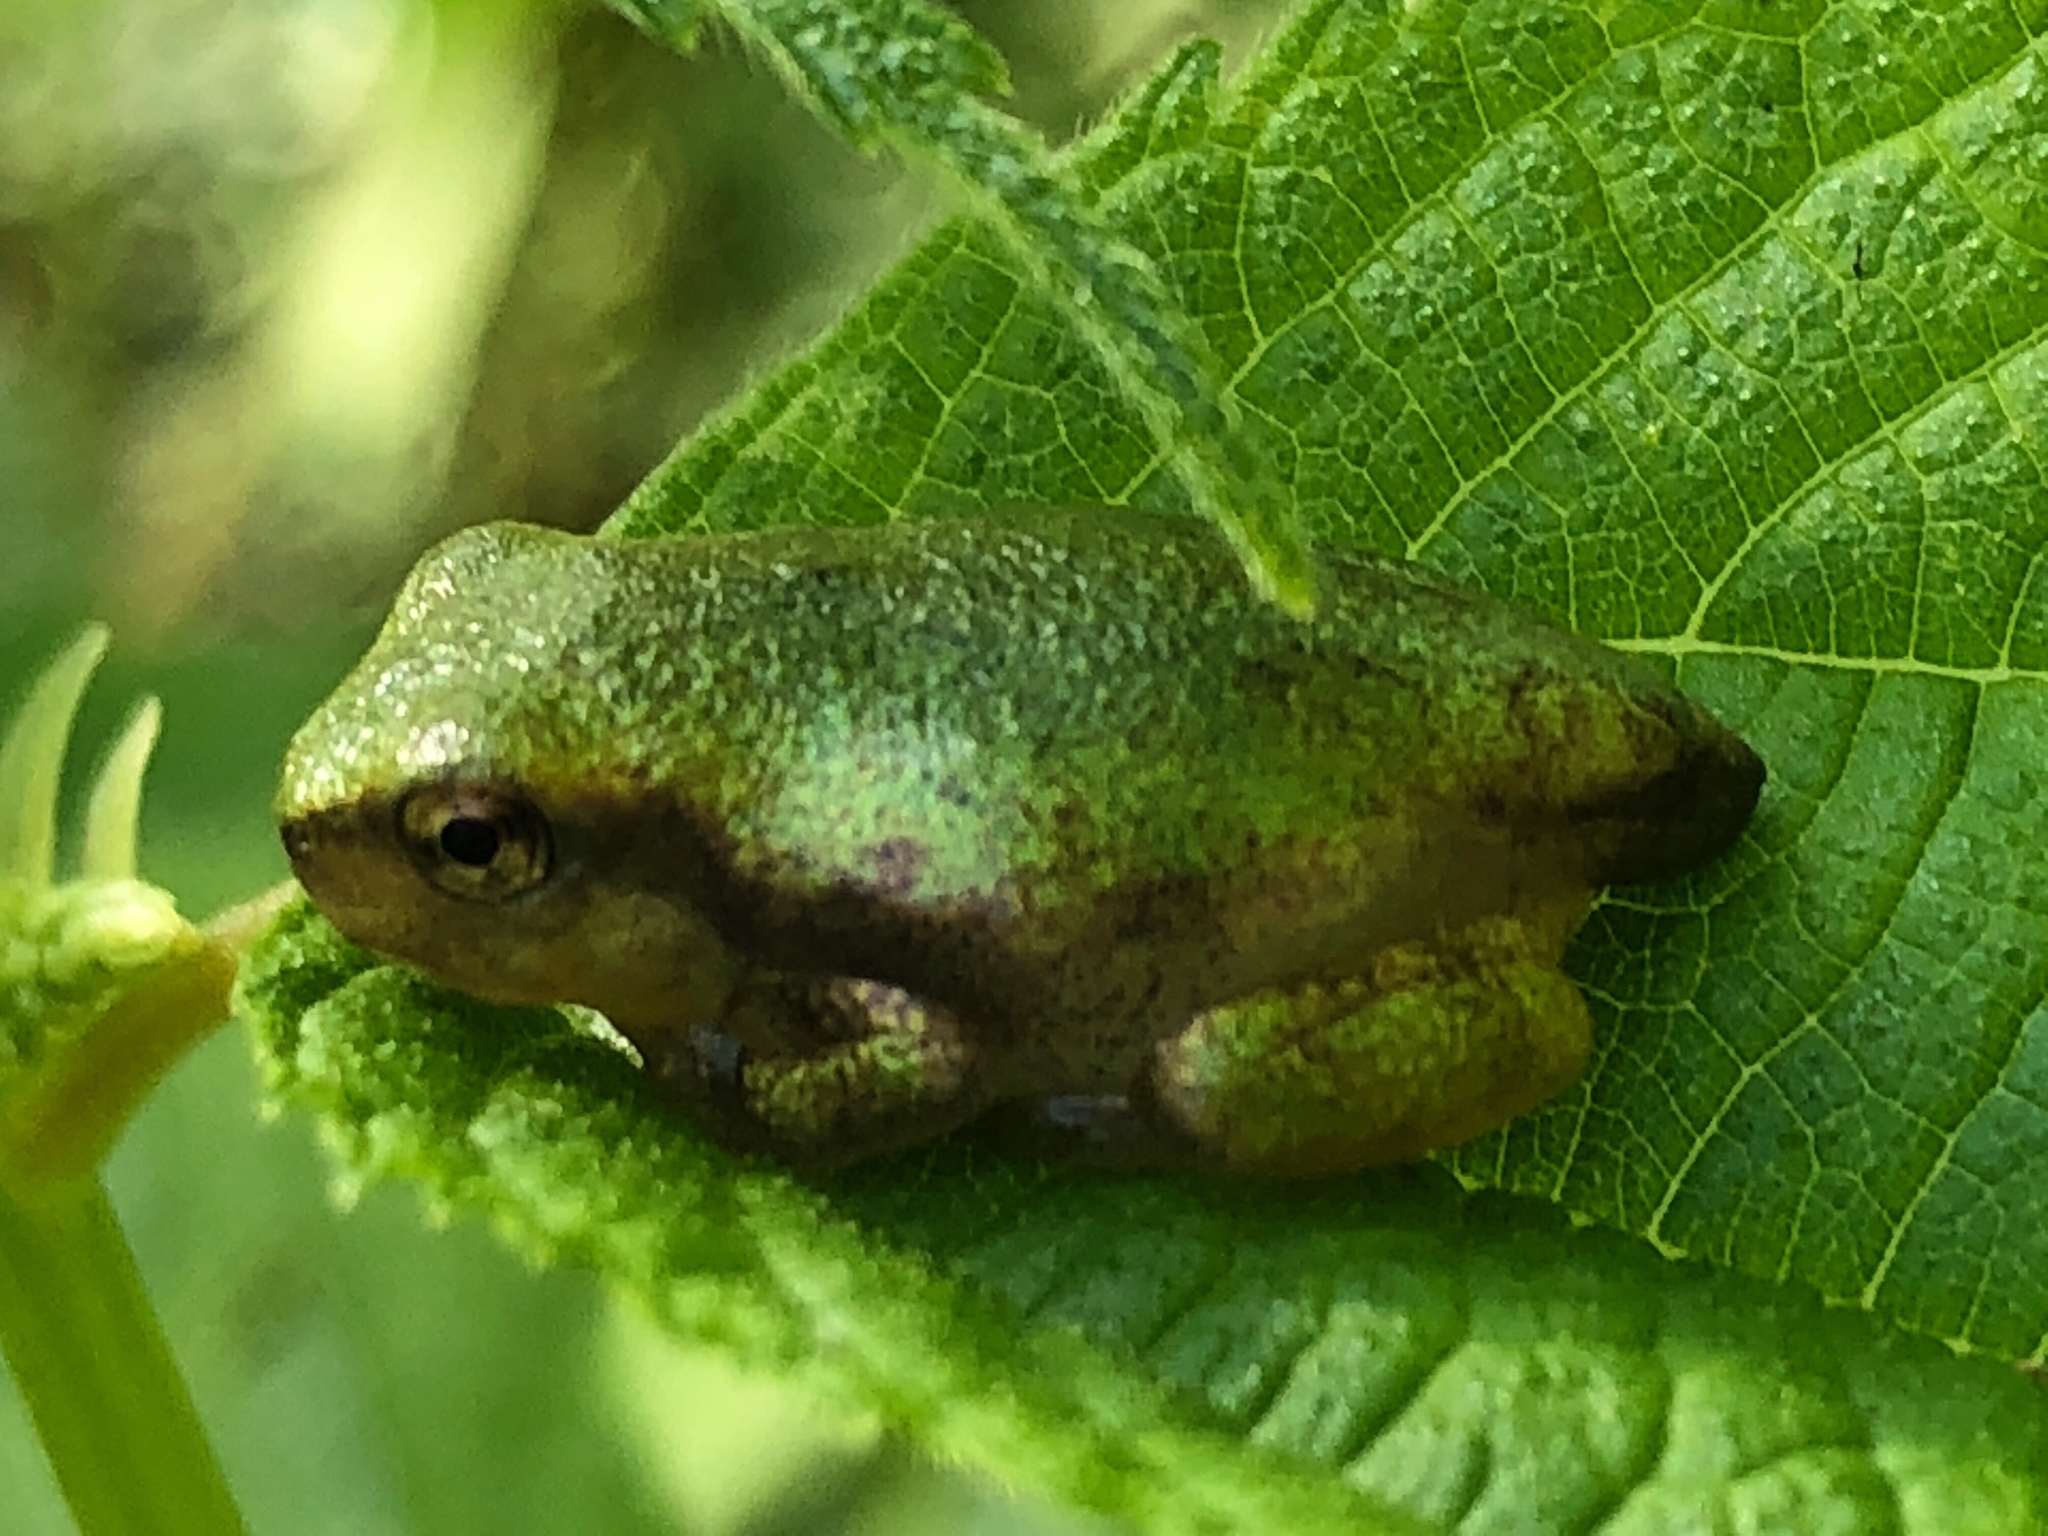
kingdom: Animalia
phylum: Chordata
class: Amphibia
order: Anura
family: Hylidae
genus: Dryophytes
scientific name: Dryophytes versicolor
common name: Gray treefrog
